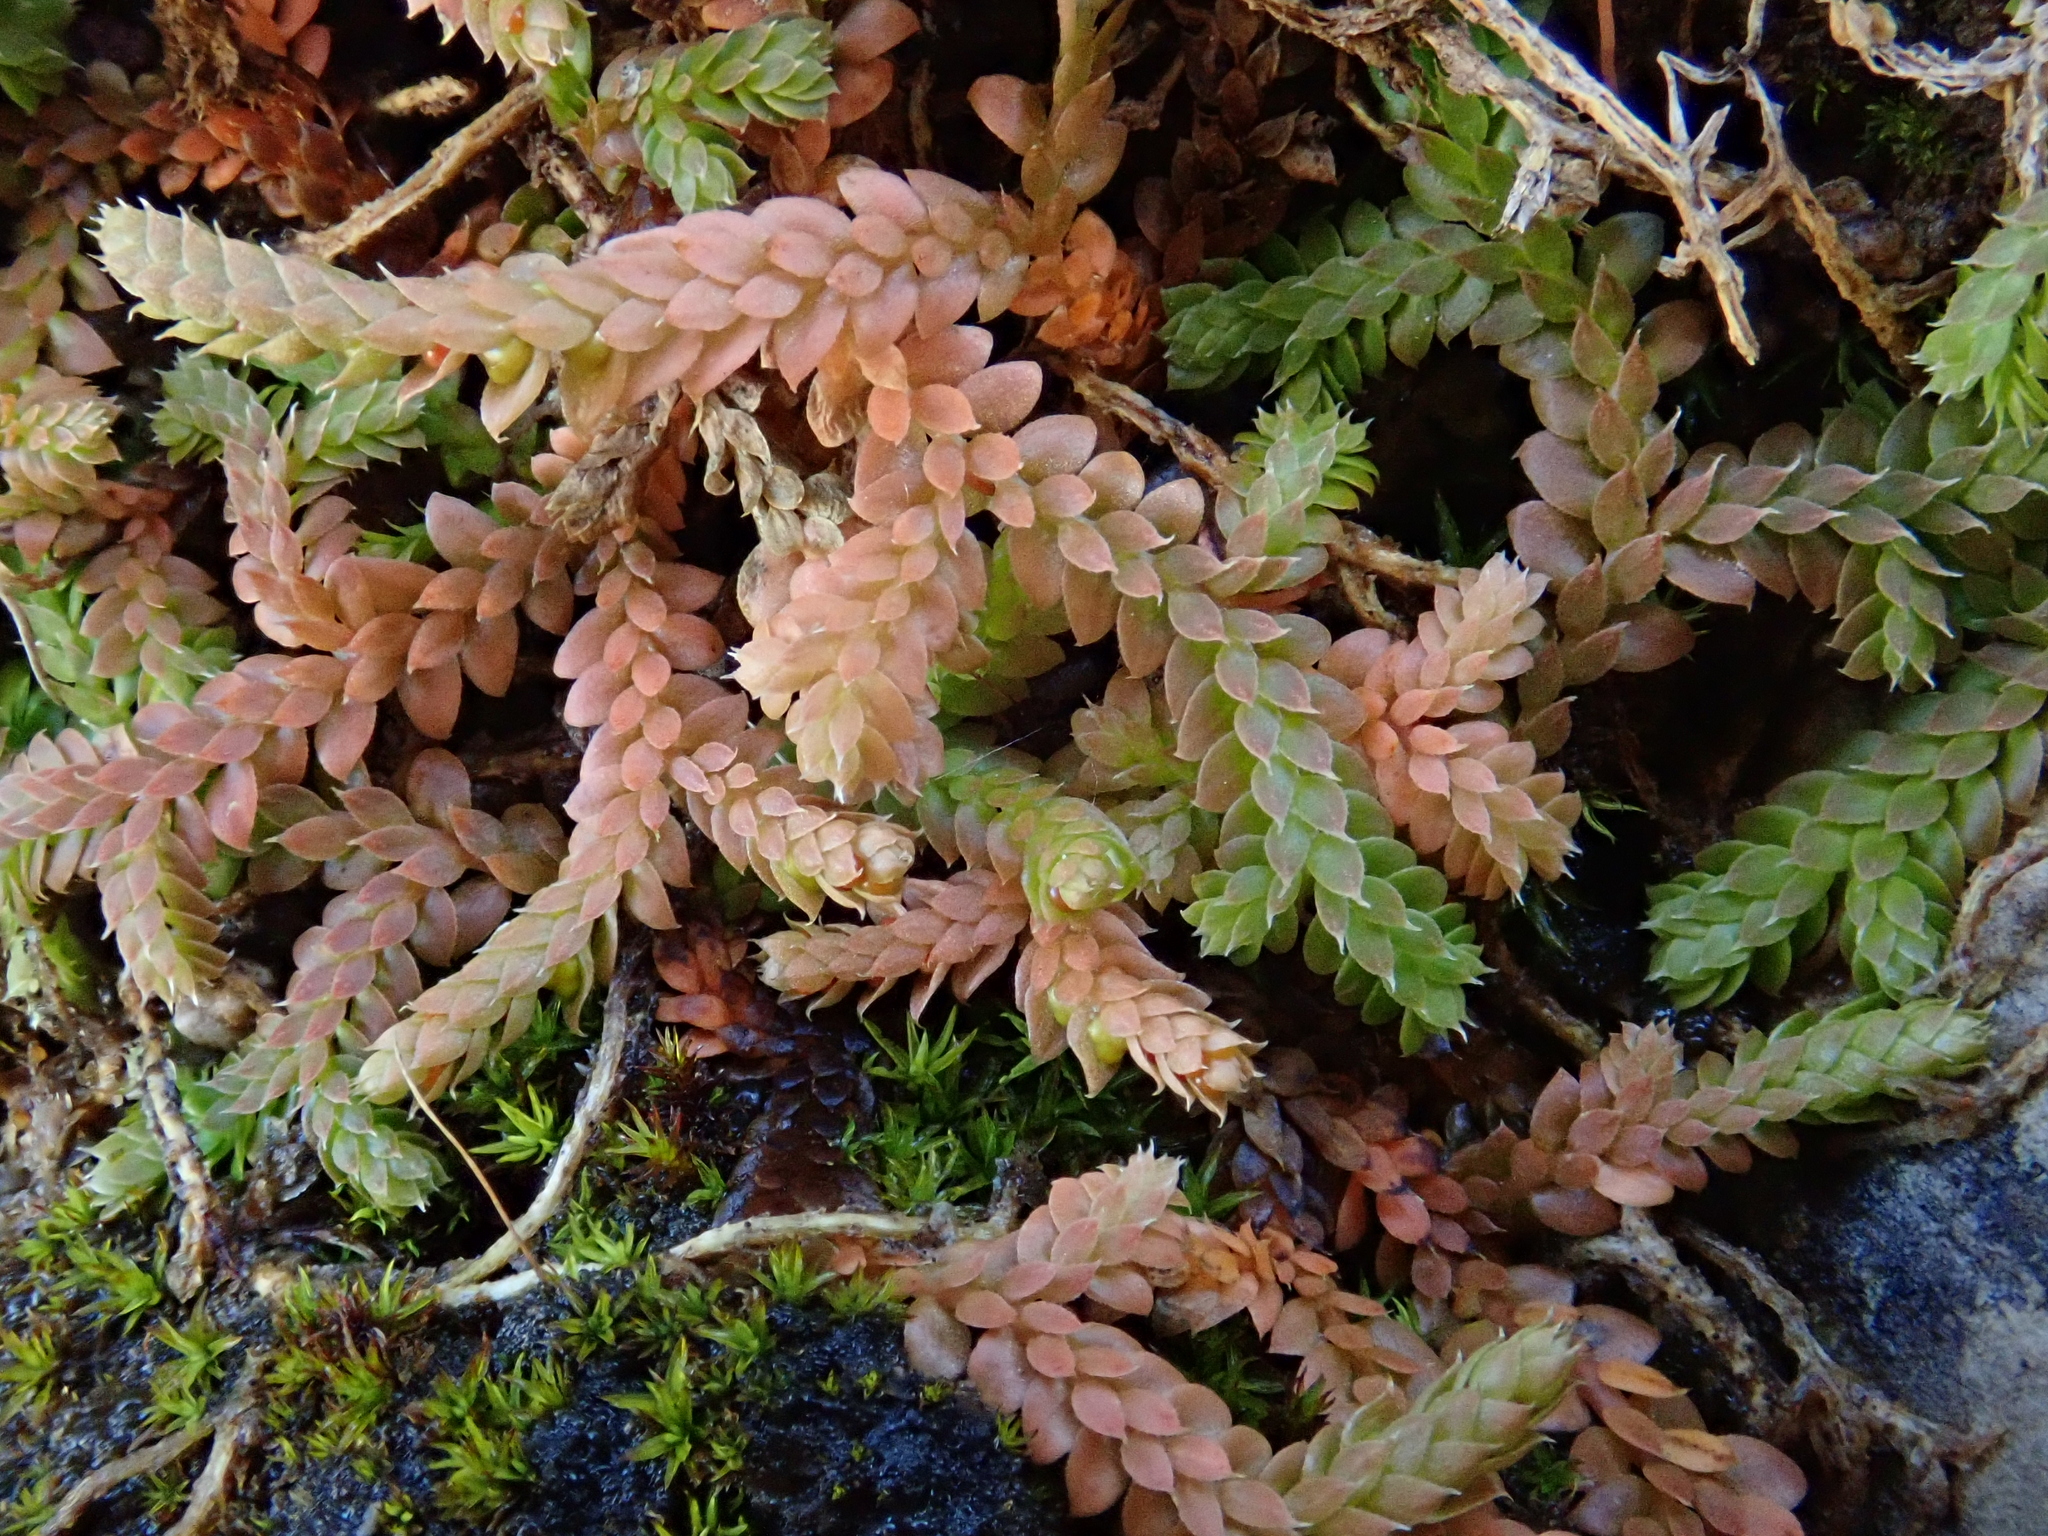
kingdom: Plantae
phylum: Tracheophyta
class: Lycopodiopsida
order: Selaginellales
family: Selaginellaceae
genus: Selaginella
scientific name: Selaginella denticulata
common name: Toothed-leaved clubmoss
